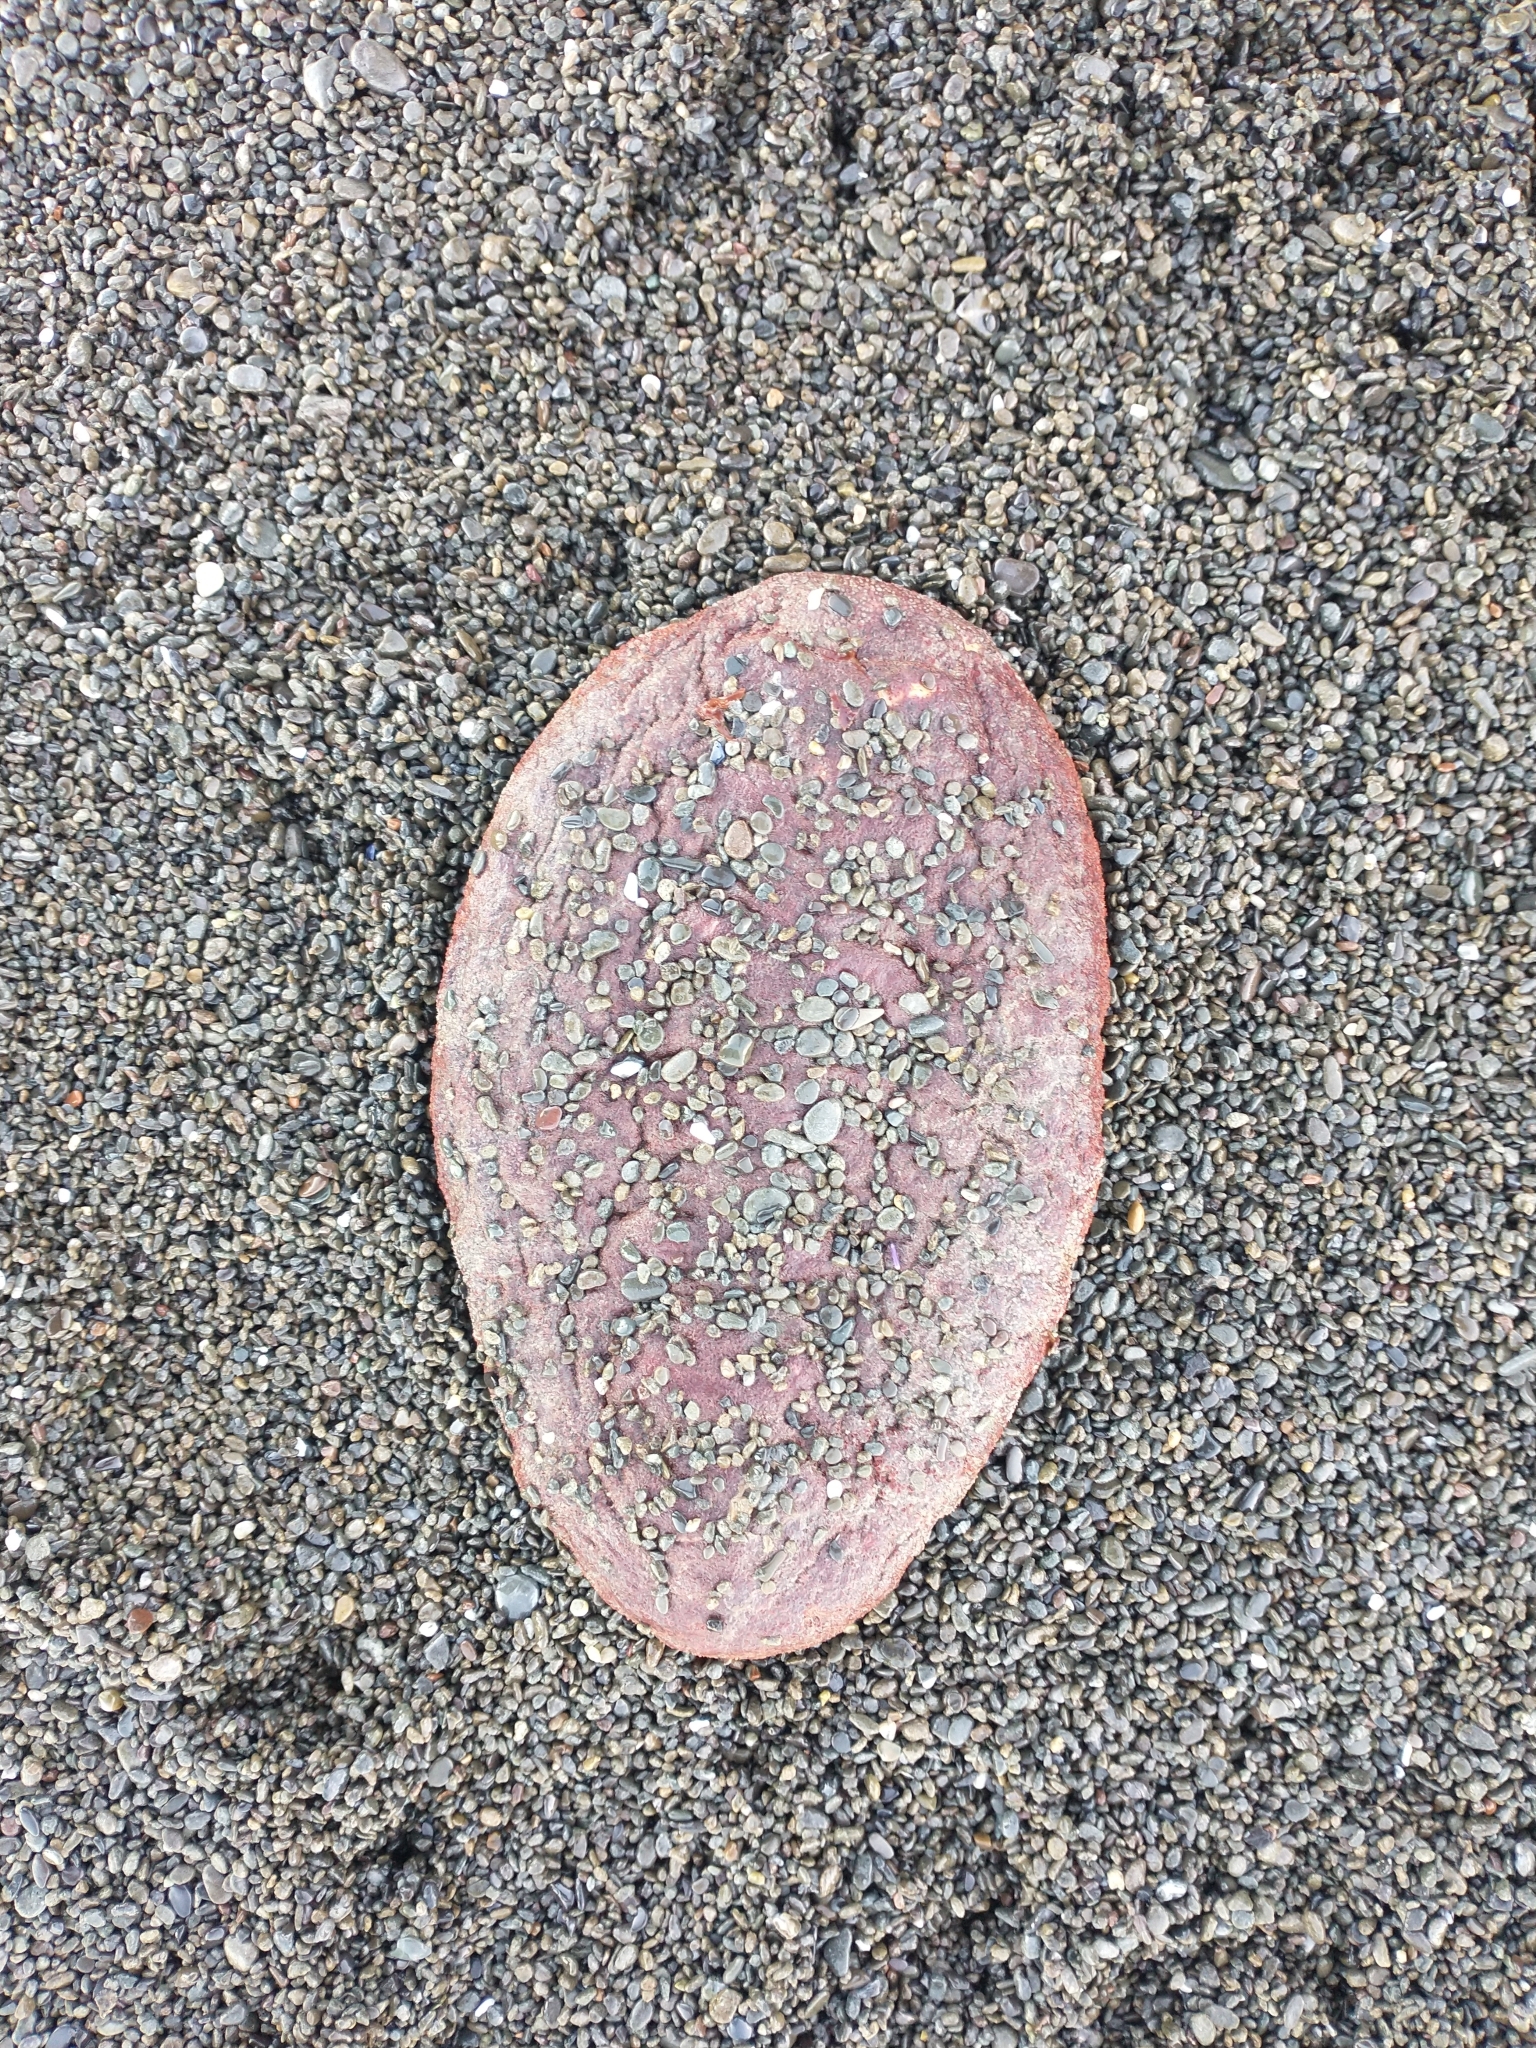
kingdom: Animalia
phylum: Mollusca
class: Polyplacophora
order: Chitonida
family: Acanthochitonidae
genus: Cryptochiton
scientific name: Cryptochiton stelleri
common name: Giant pacific chiton
